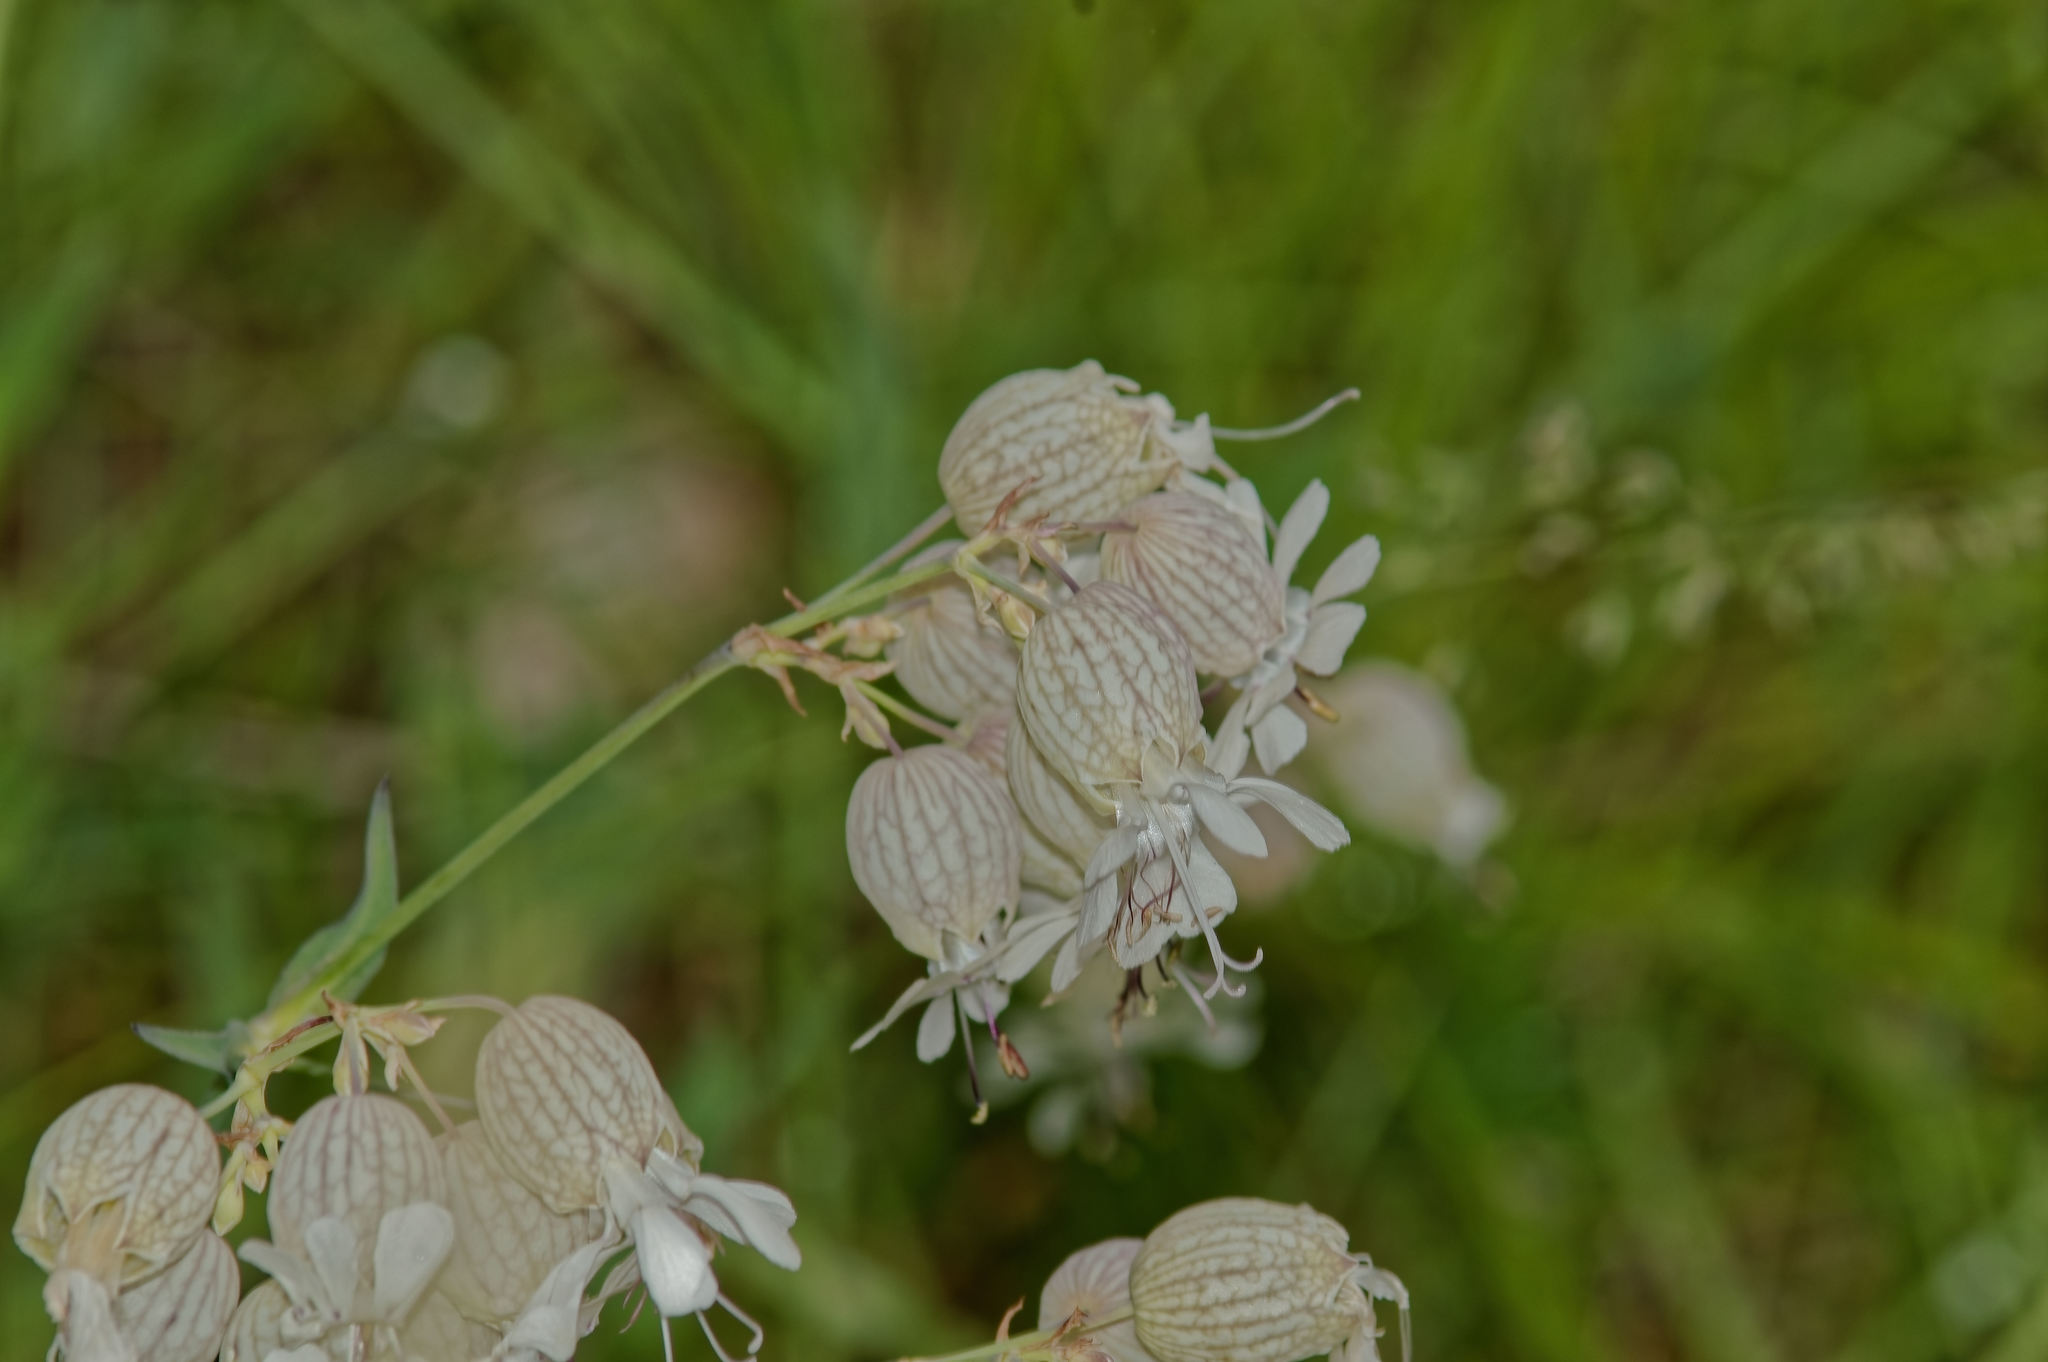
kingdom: Plantae
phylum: Tracheophyta
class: Magnoliopsida
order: Caryophyllales
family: Caryophyllaceae
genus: Silene
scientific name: Silene vulgaris
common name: Bladder campion
